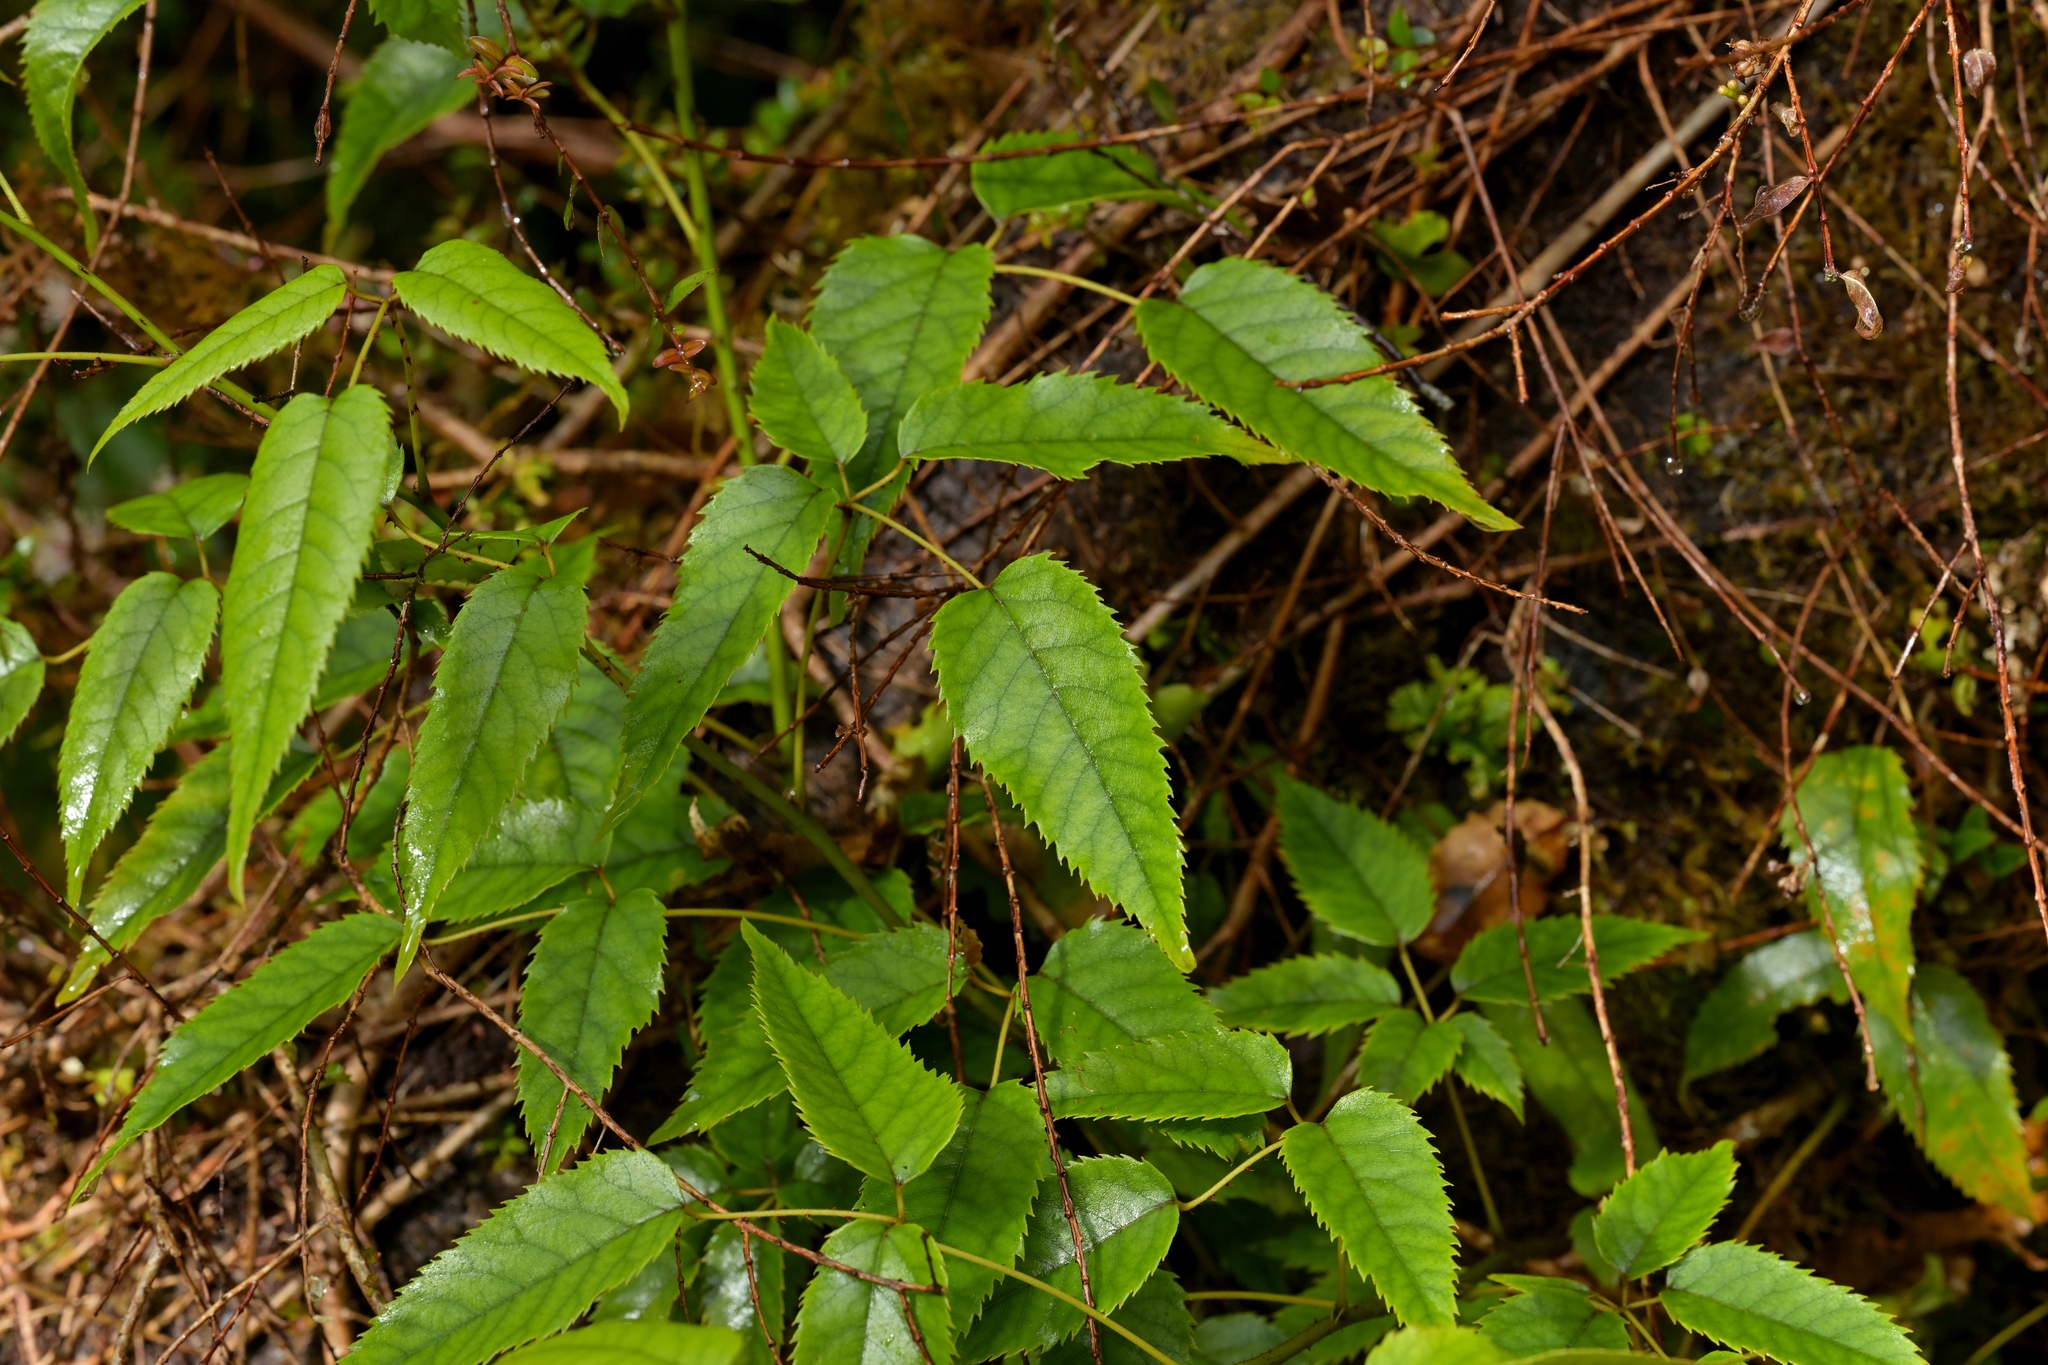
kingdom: Plantae
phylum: Tracheophyta
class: Magnoliopsida
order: Rosales
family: Rosaceae
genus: Rubus
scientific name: Rubus cissoides
